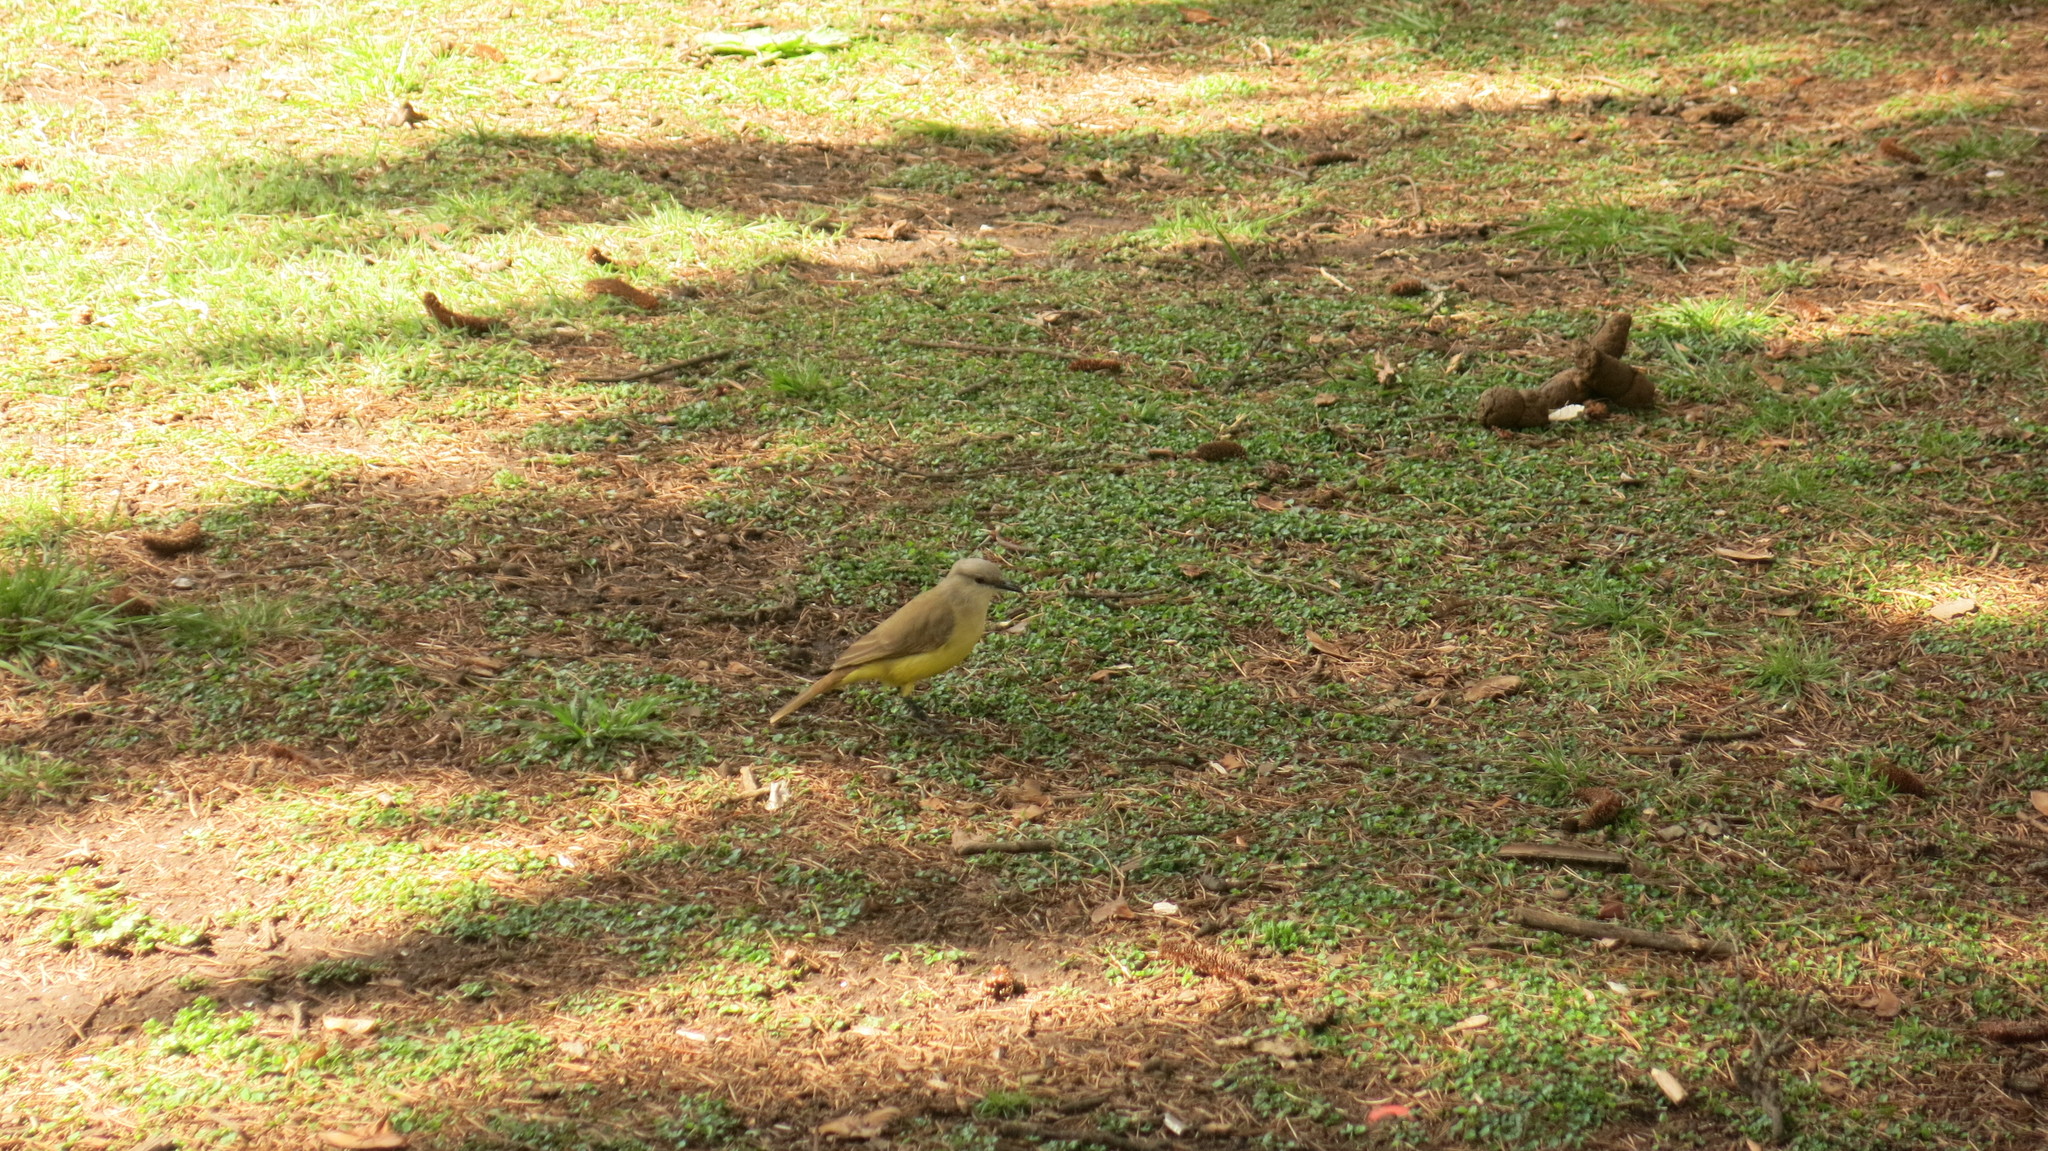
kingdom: Animalia
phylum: Chordata
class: Aves
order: Passeriformes
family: Tyrannidae
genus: Machetornis
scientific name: Machetornis rixosa
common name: Cattle tyrant
